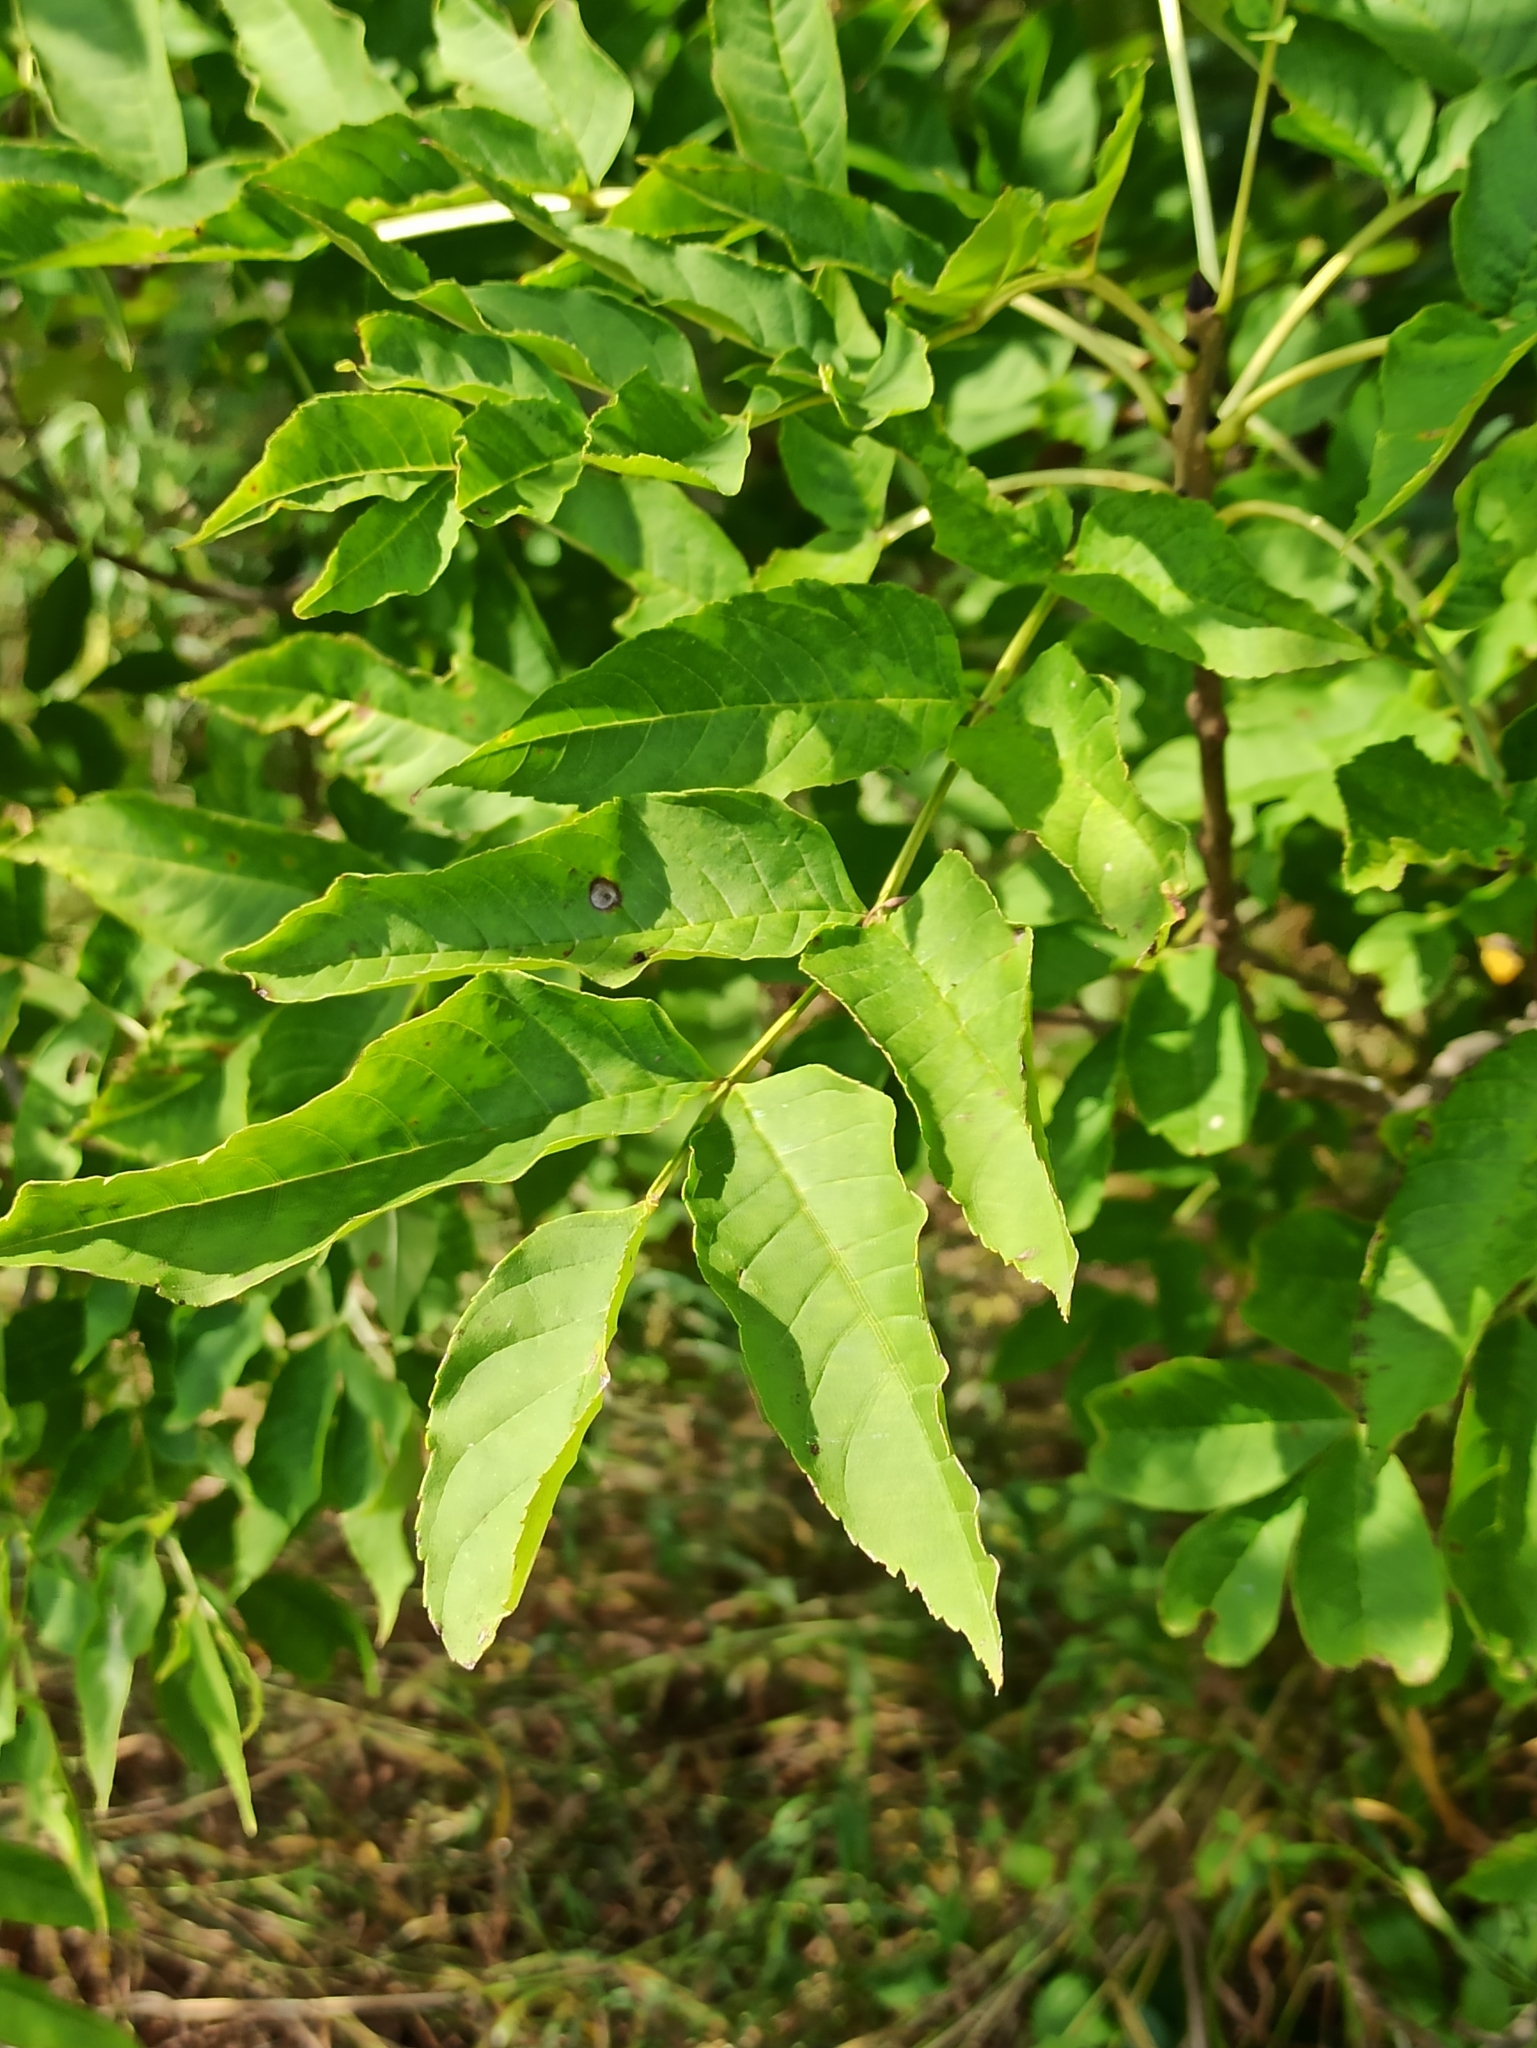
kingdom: Plantae
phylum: Tracheophyta
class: Magnoliopsida
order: Lamiales
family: Oleaceae
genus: Fraxinus
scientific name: Fraxinus excelsior
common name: European ash
